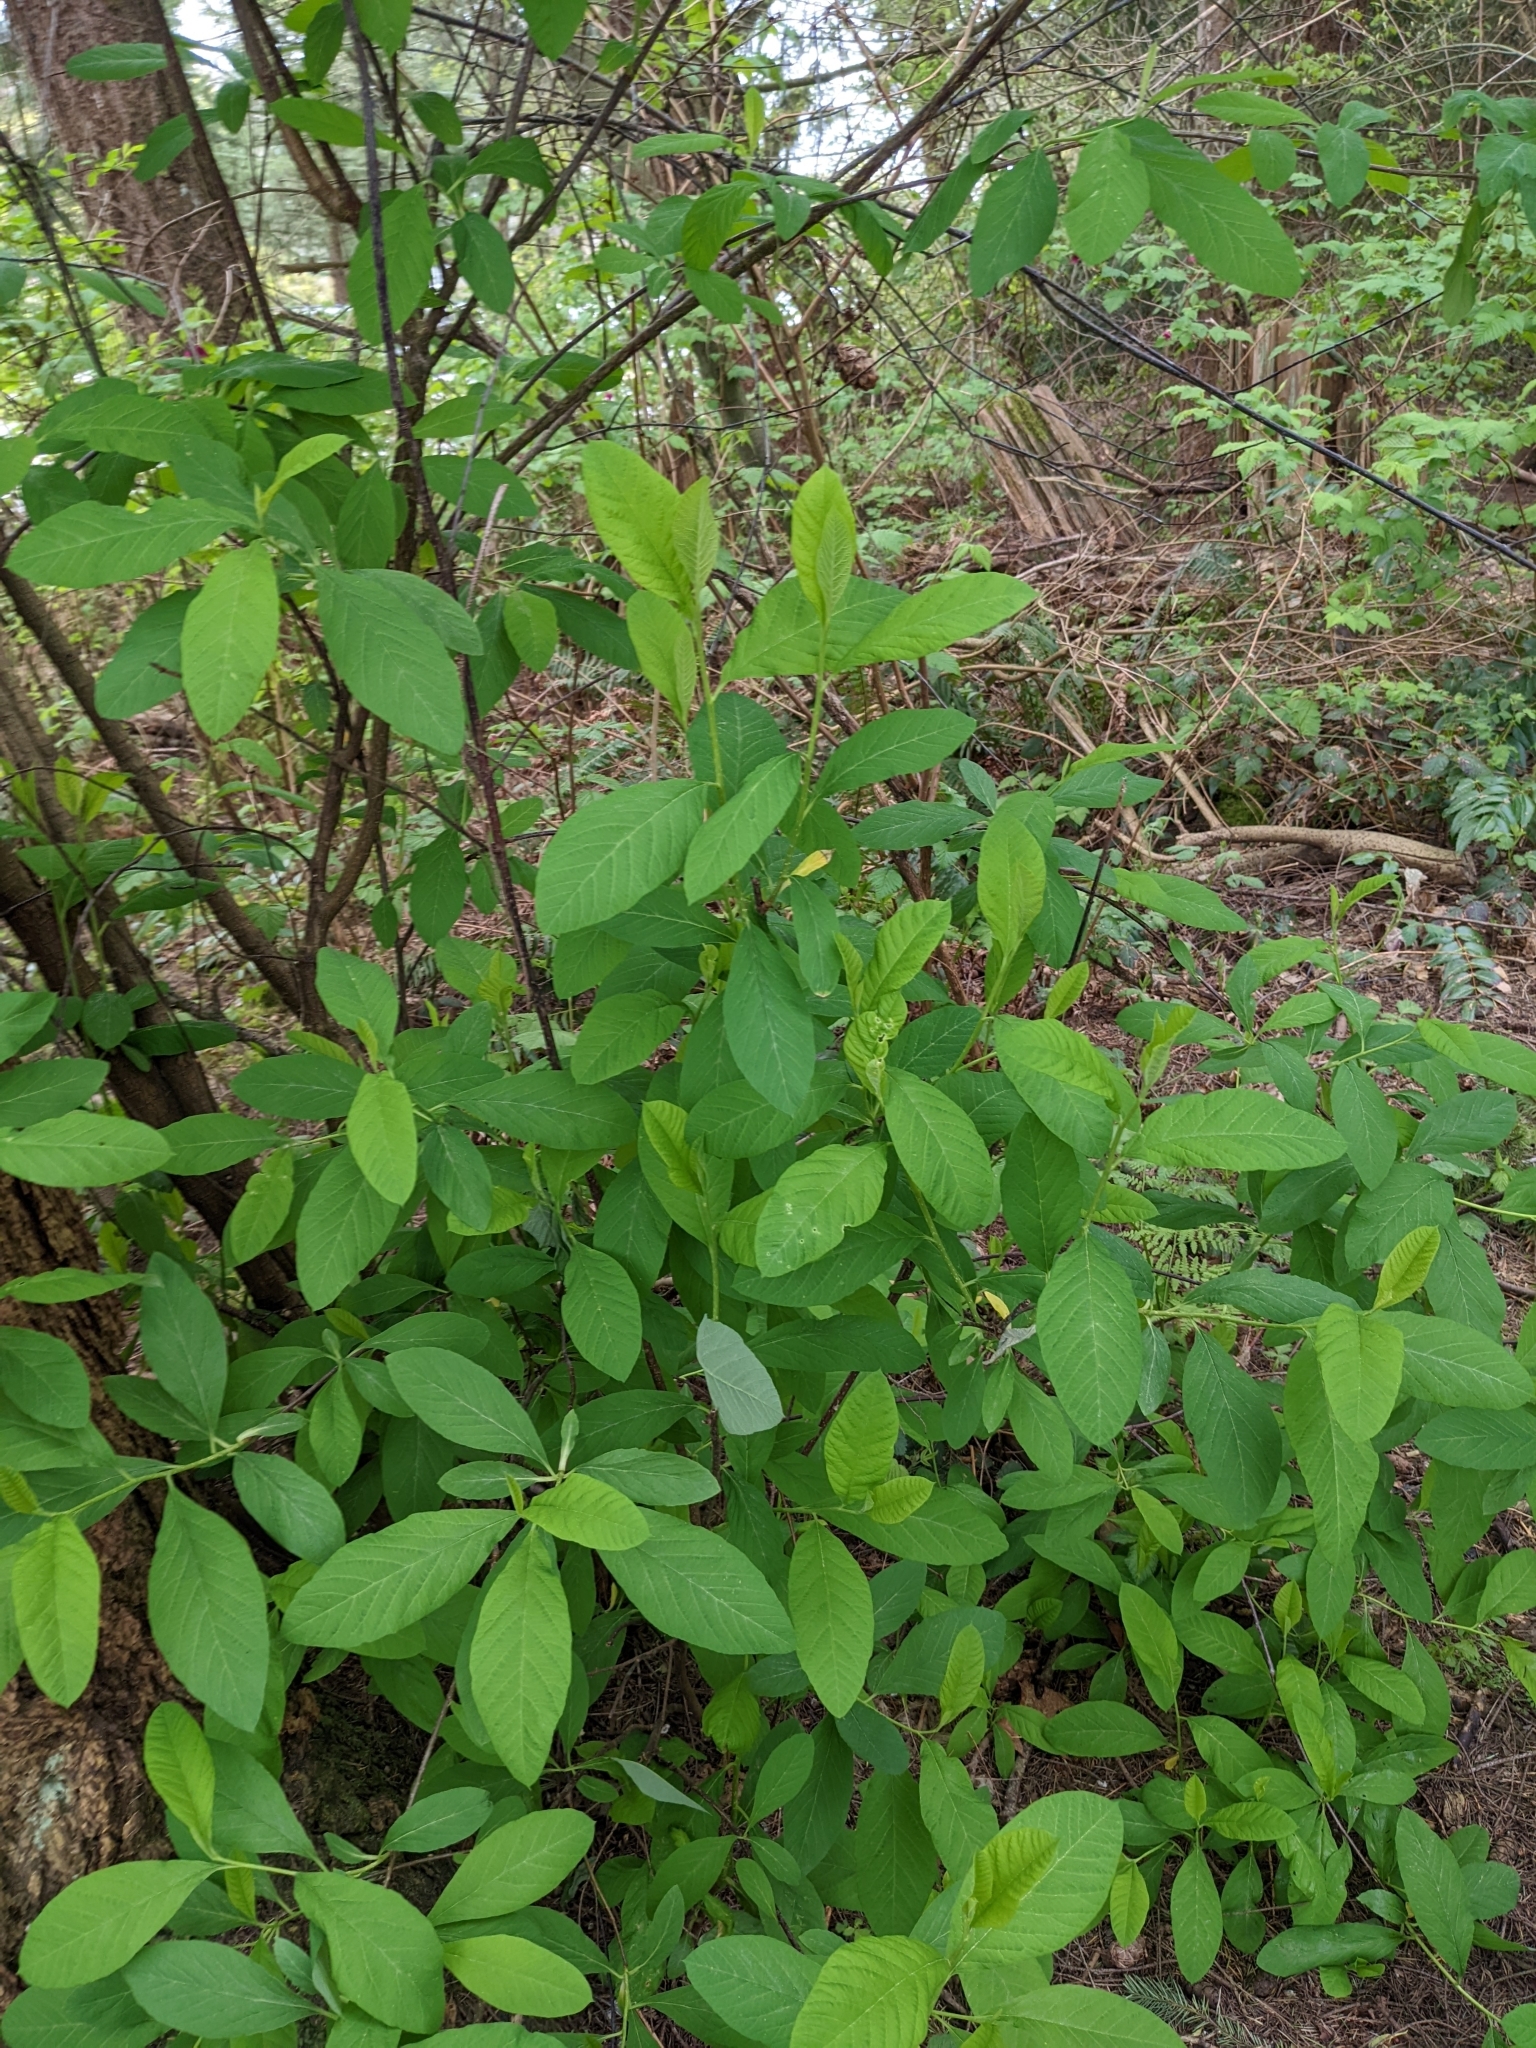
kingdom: Plantae
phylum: Tracheophyta
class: Magnoliopsida
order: Rosales
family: Rosaceae
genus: Oemleria
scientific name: Oemleria cerasiformis
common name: Osoberry
